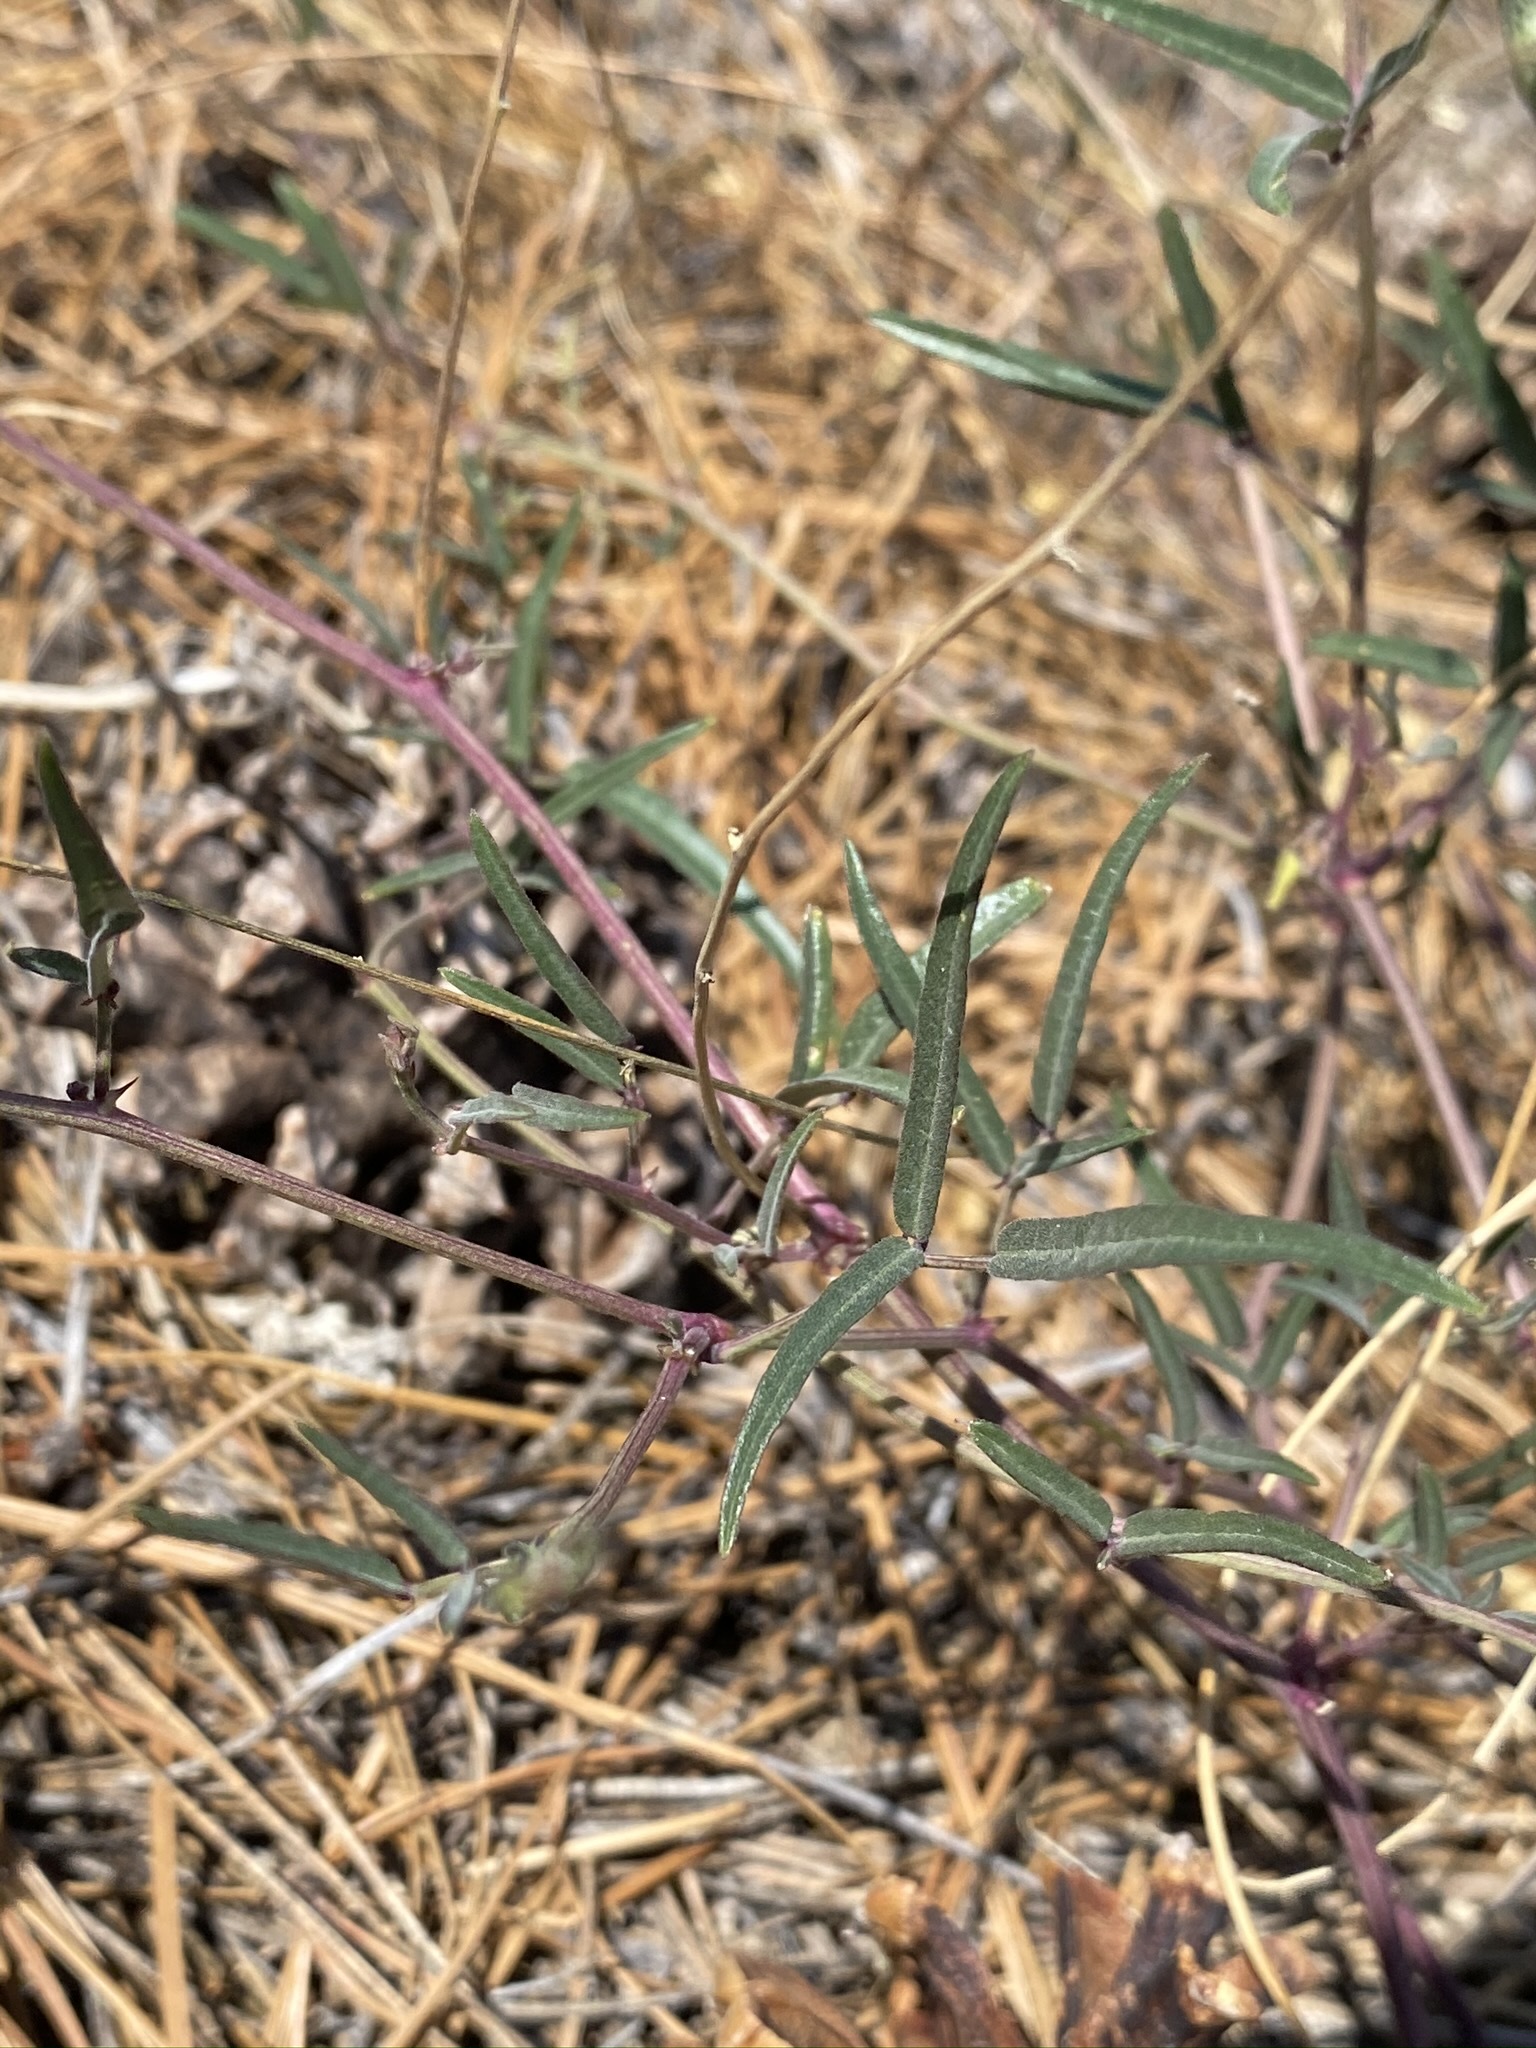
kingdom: Plantae
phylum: Tracheophyta
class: Magnoliopsida
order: Fabales
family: Fabaceae
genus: Phaseolus
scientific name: Phaseolus angustissimus
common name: Slimleaf bean
